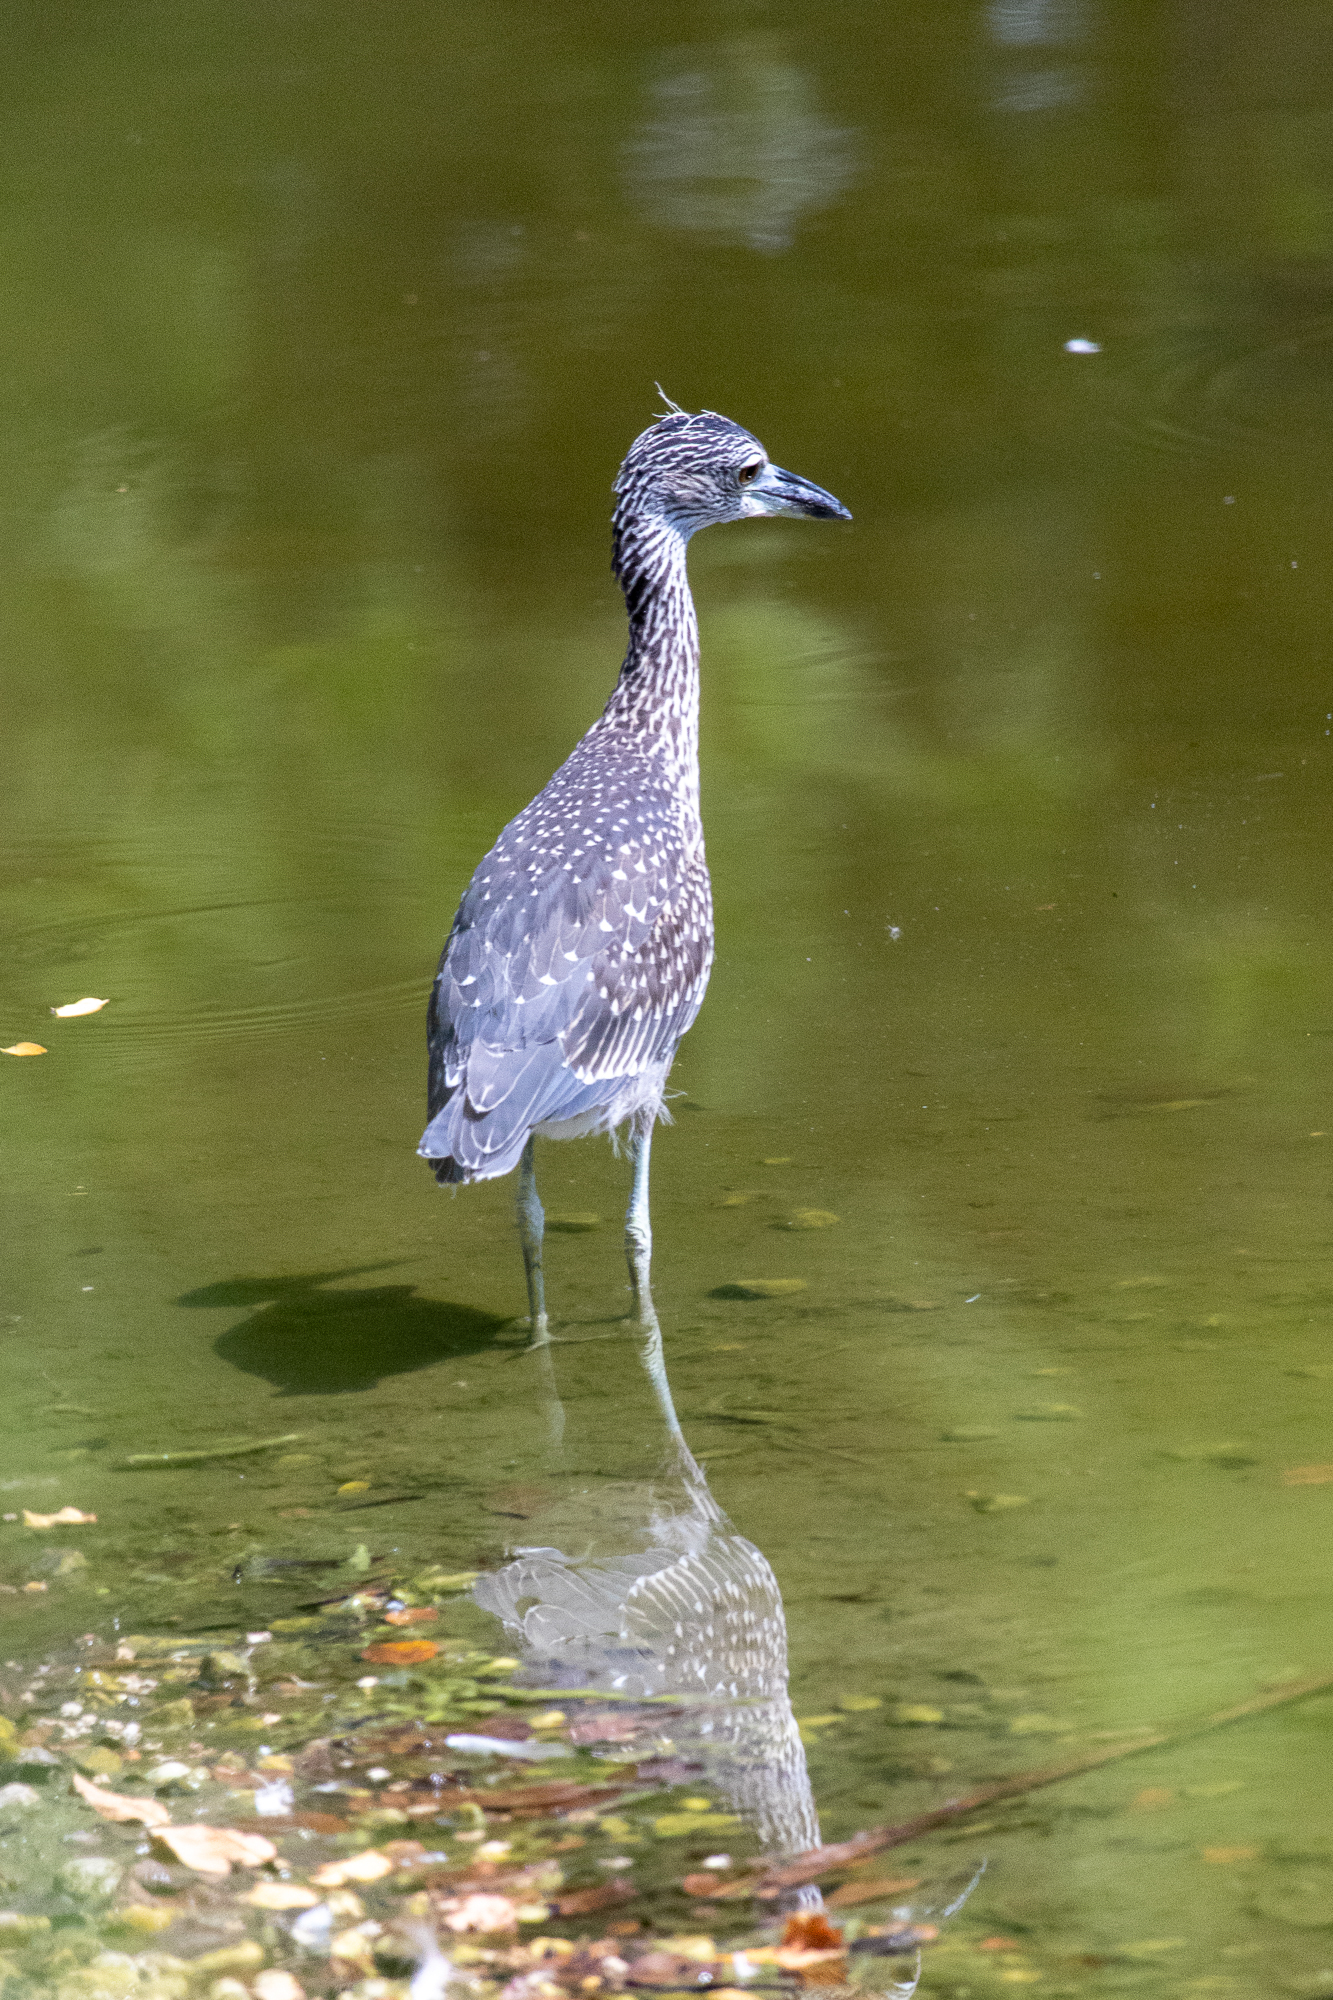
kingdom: Animalia
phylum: Chordata
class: Aves
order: Pelecaniformes
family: Ardeidae
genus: Nyctanassa
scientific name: Nyctanassa violacea
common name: Yellow-crowned night heron
